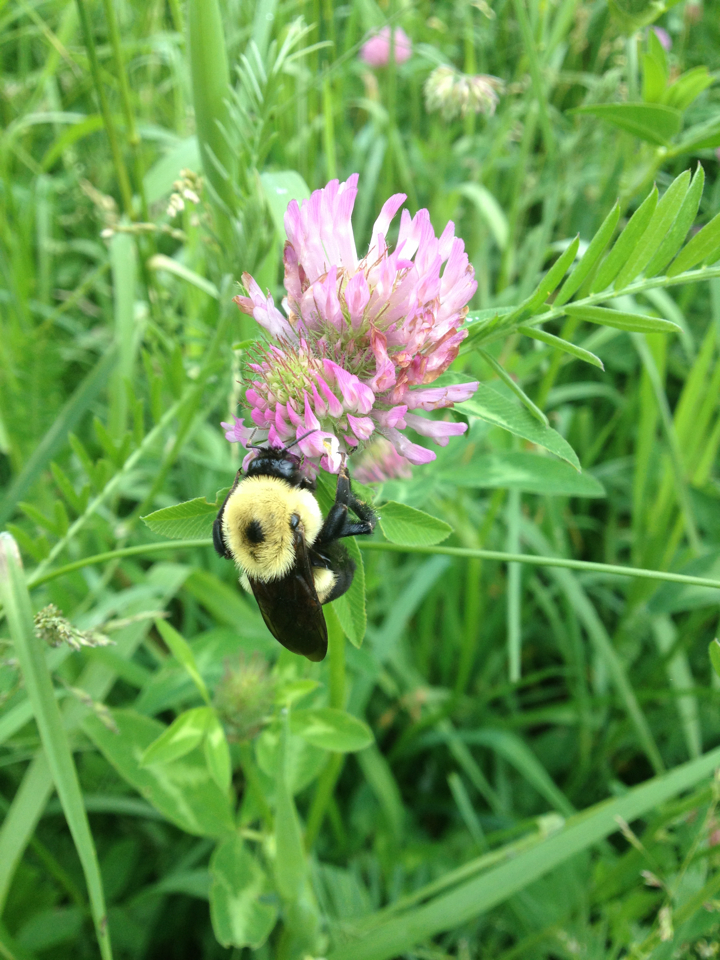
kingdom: Animalia
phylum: Arthropoda
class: Insecta
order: Hymenoptera
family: Apidae
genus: Bombus
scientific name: Bombus griseocollis
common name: Brown-belted bumble bee
